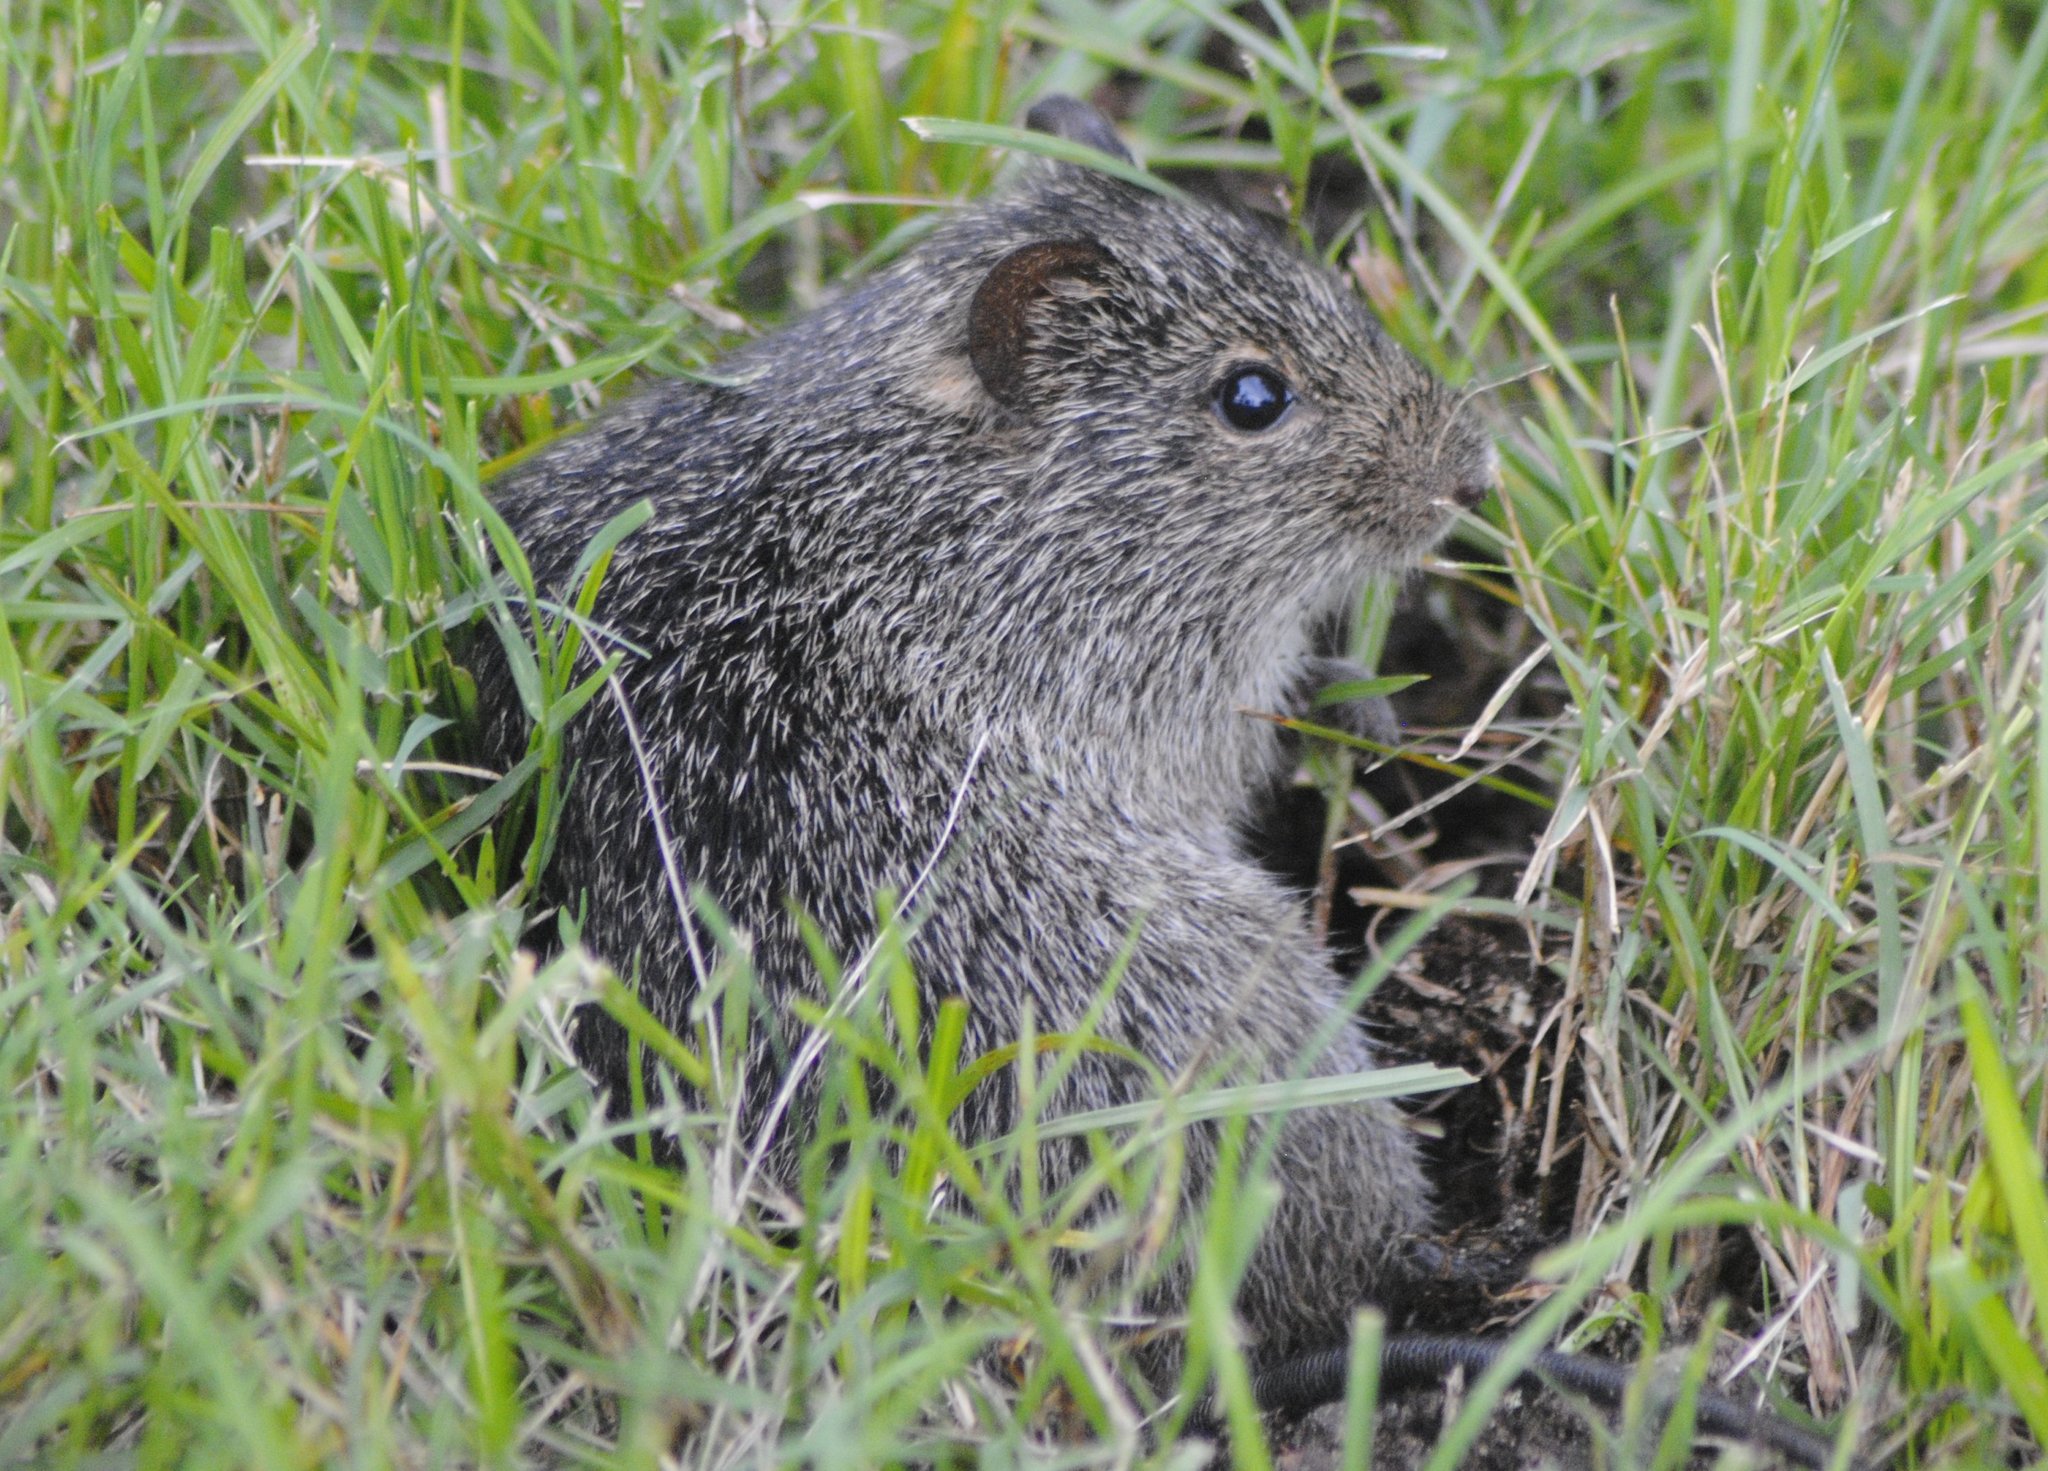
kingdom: Animalia
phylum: Chordata
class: Mammalia
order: Rodentia
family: Cricetidae
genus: Sigmodon
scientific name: Sigmodon hispidus
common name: Hispid cotton rat
